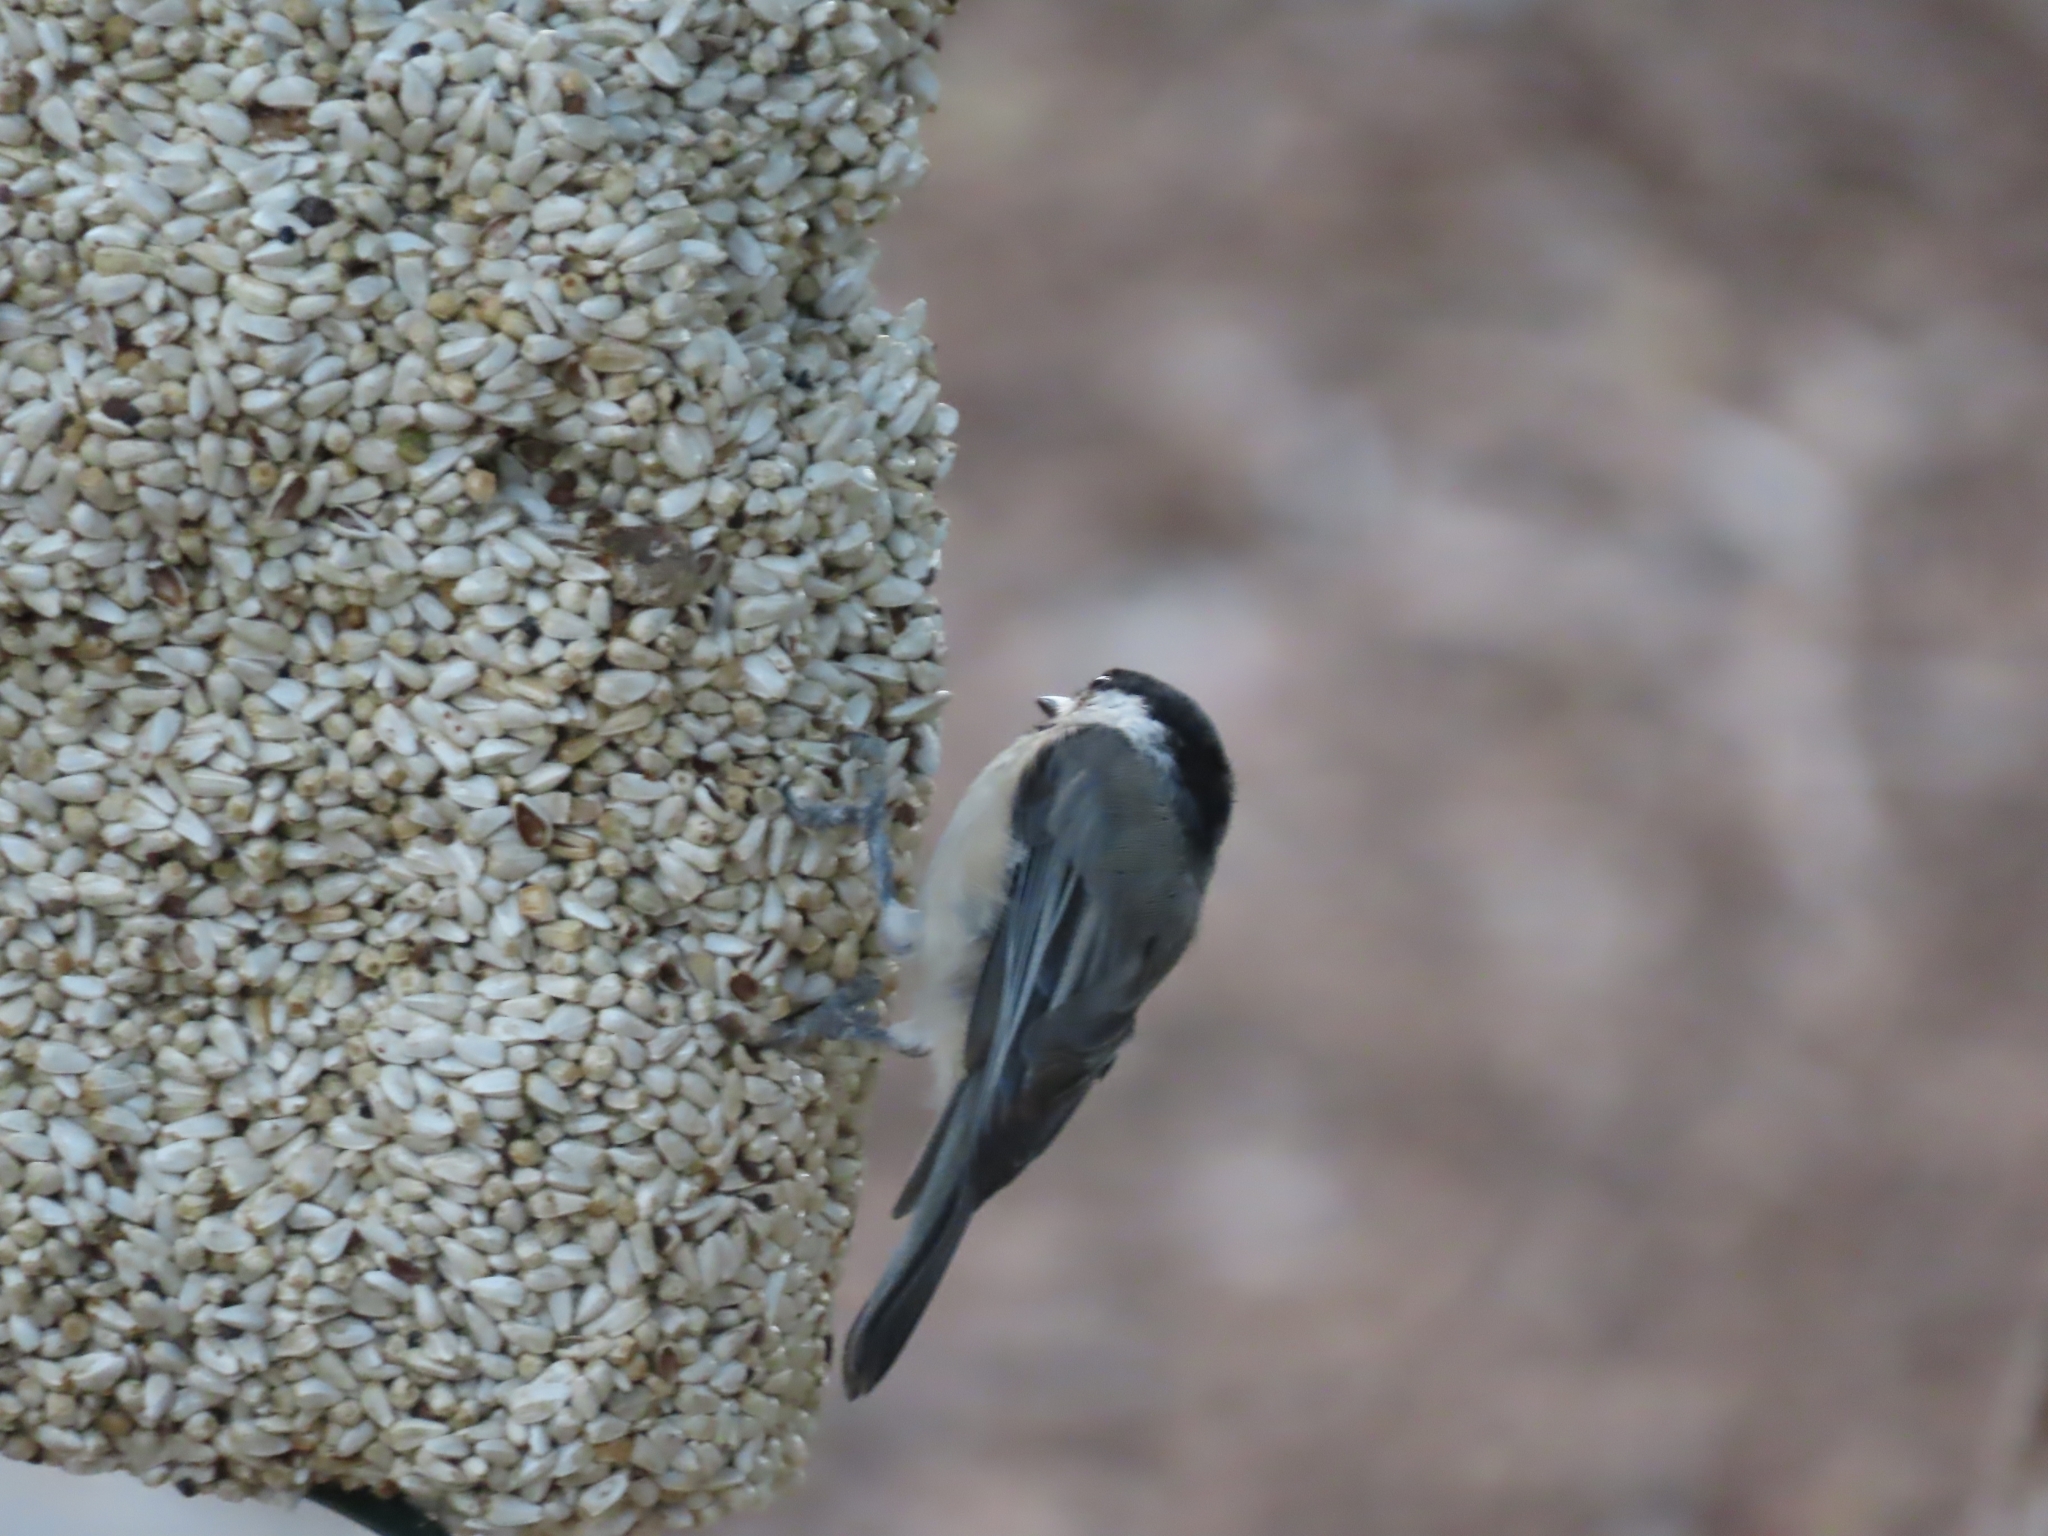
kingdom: Animalia
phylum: Chordata
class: Aves
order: Passeriformes
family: Paridae
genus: Poecile
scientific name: Poecile carolinensis
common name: Carolina chickadee
